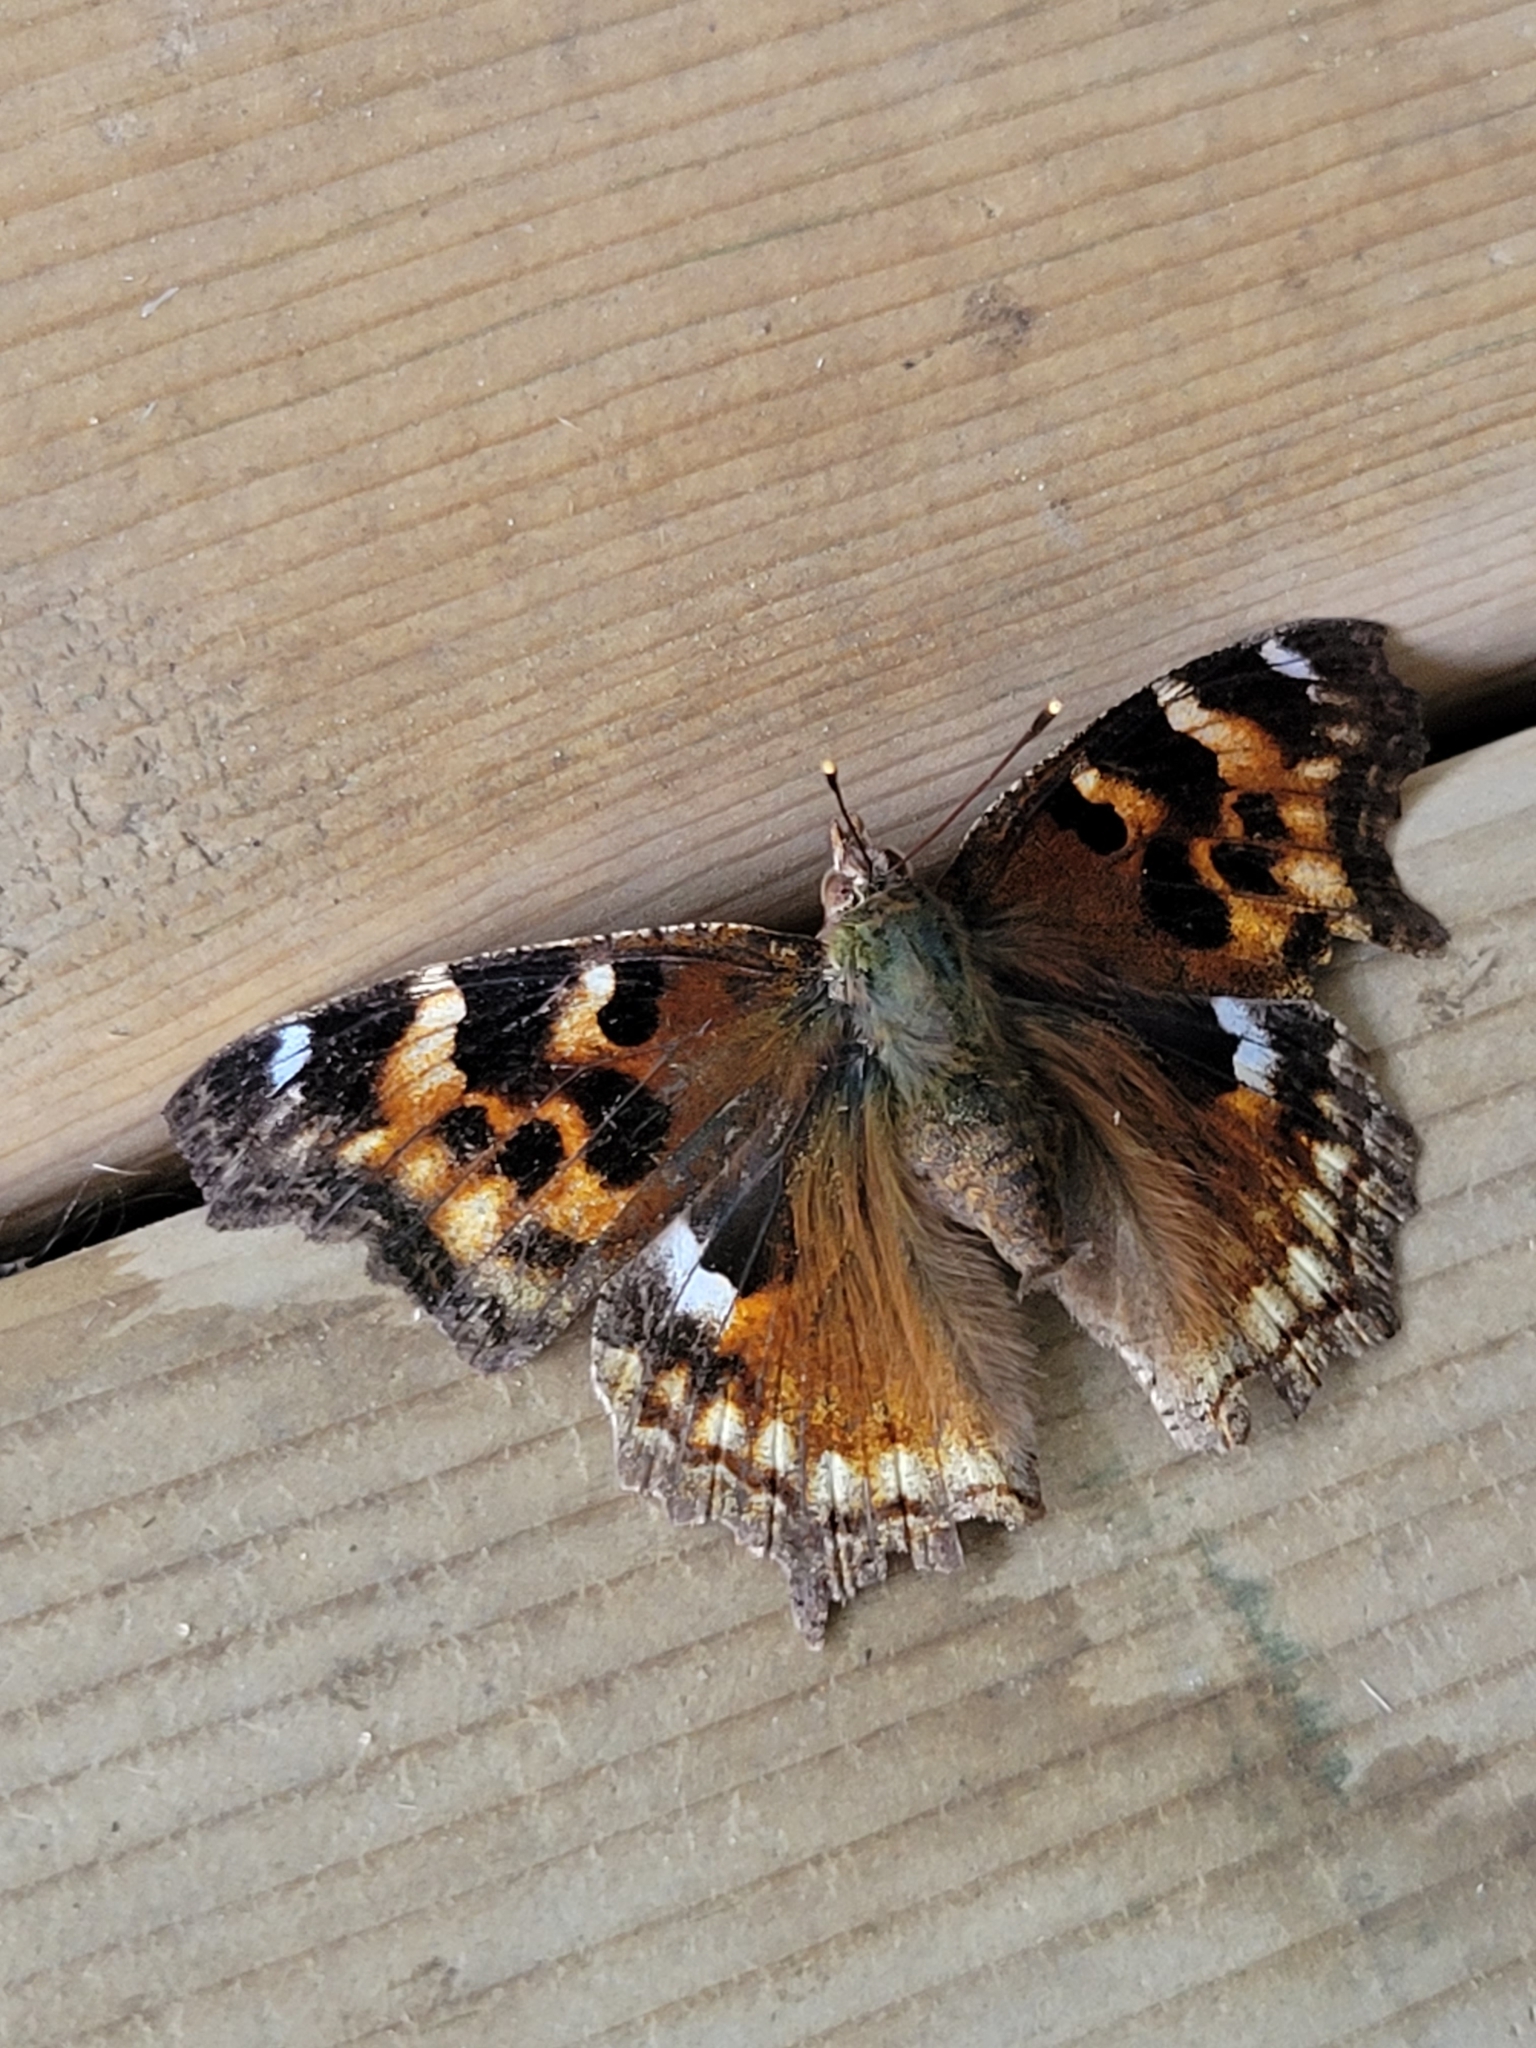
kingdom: Animalia
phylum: Arthropoda
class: Insecta
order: Lepidoptera
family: Nymphalidae
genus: Polygonia
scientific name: Polygonia vaualbum
